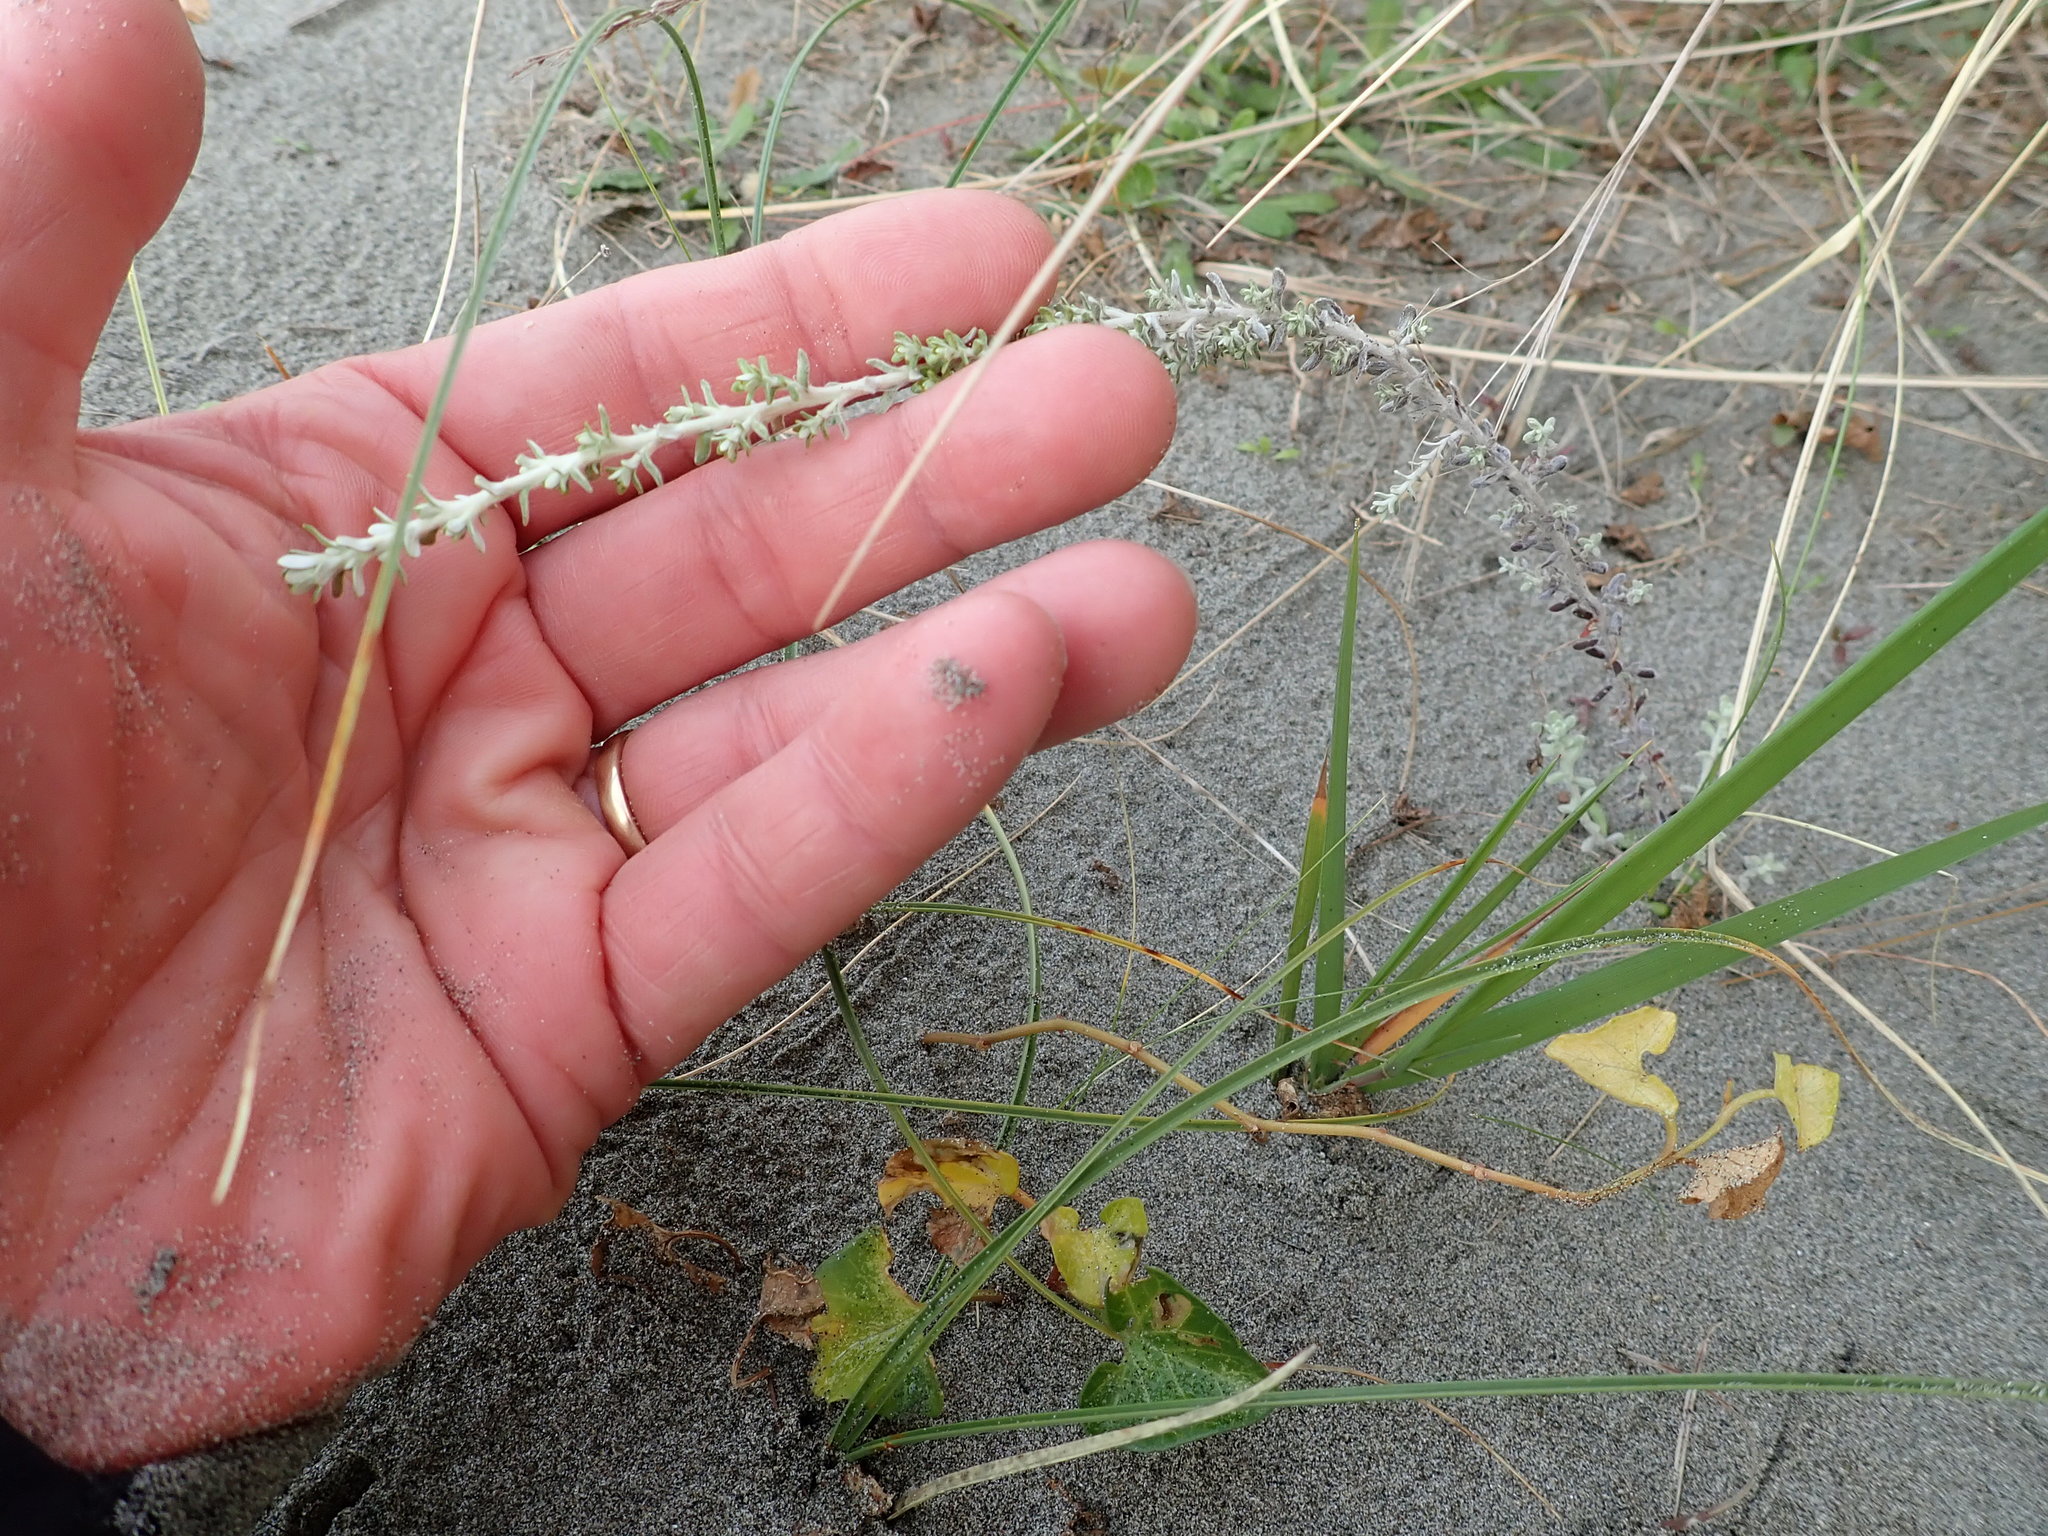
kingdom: Plantae
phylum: Tracheophyta
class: Magnoliopsida
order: Asterales
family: Asteraceae
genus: Ozothamnus
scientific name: Ozothamnus leptophyllus
